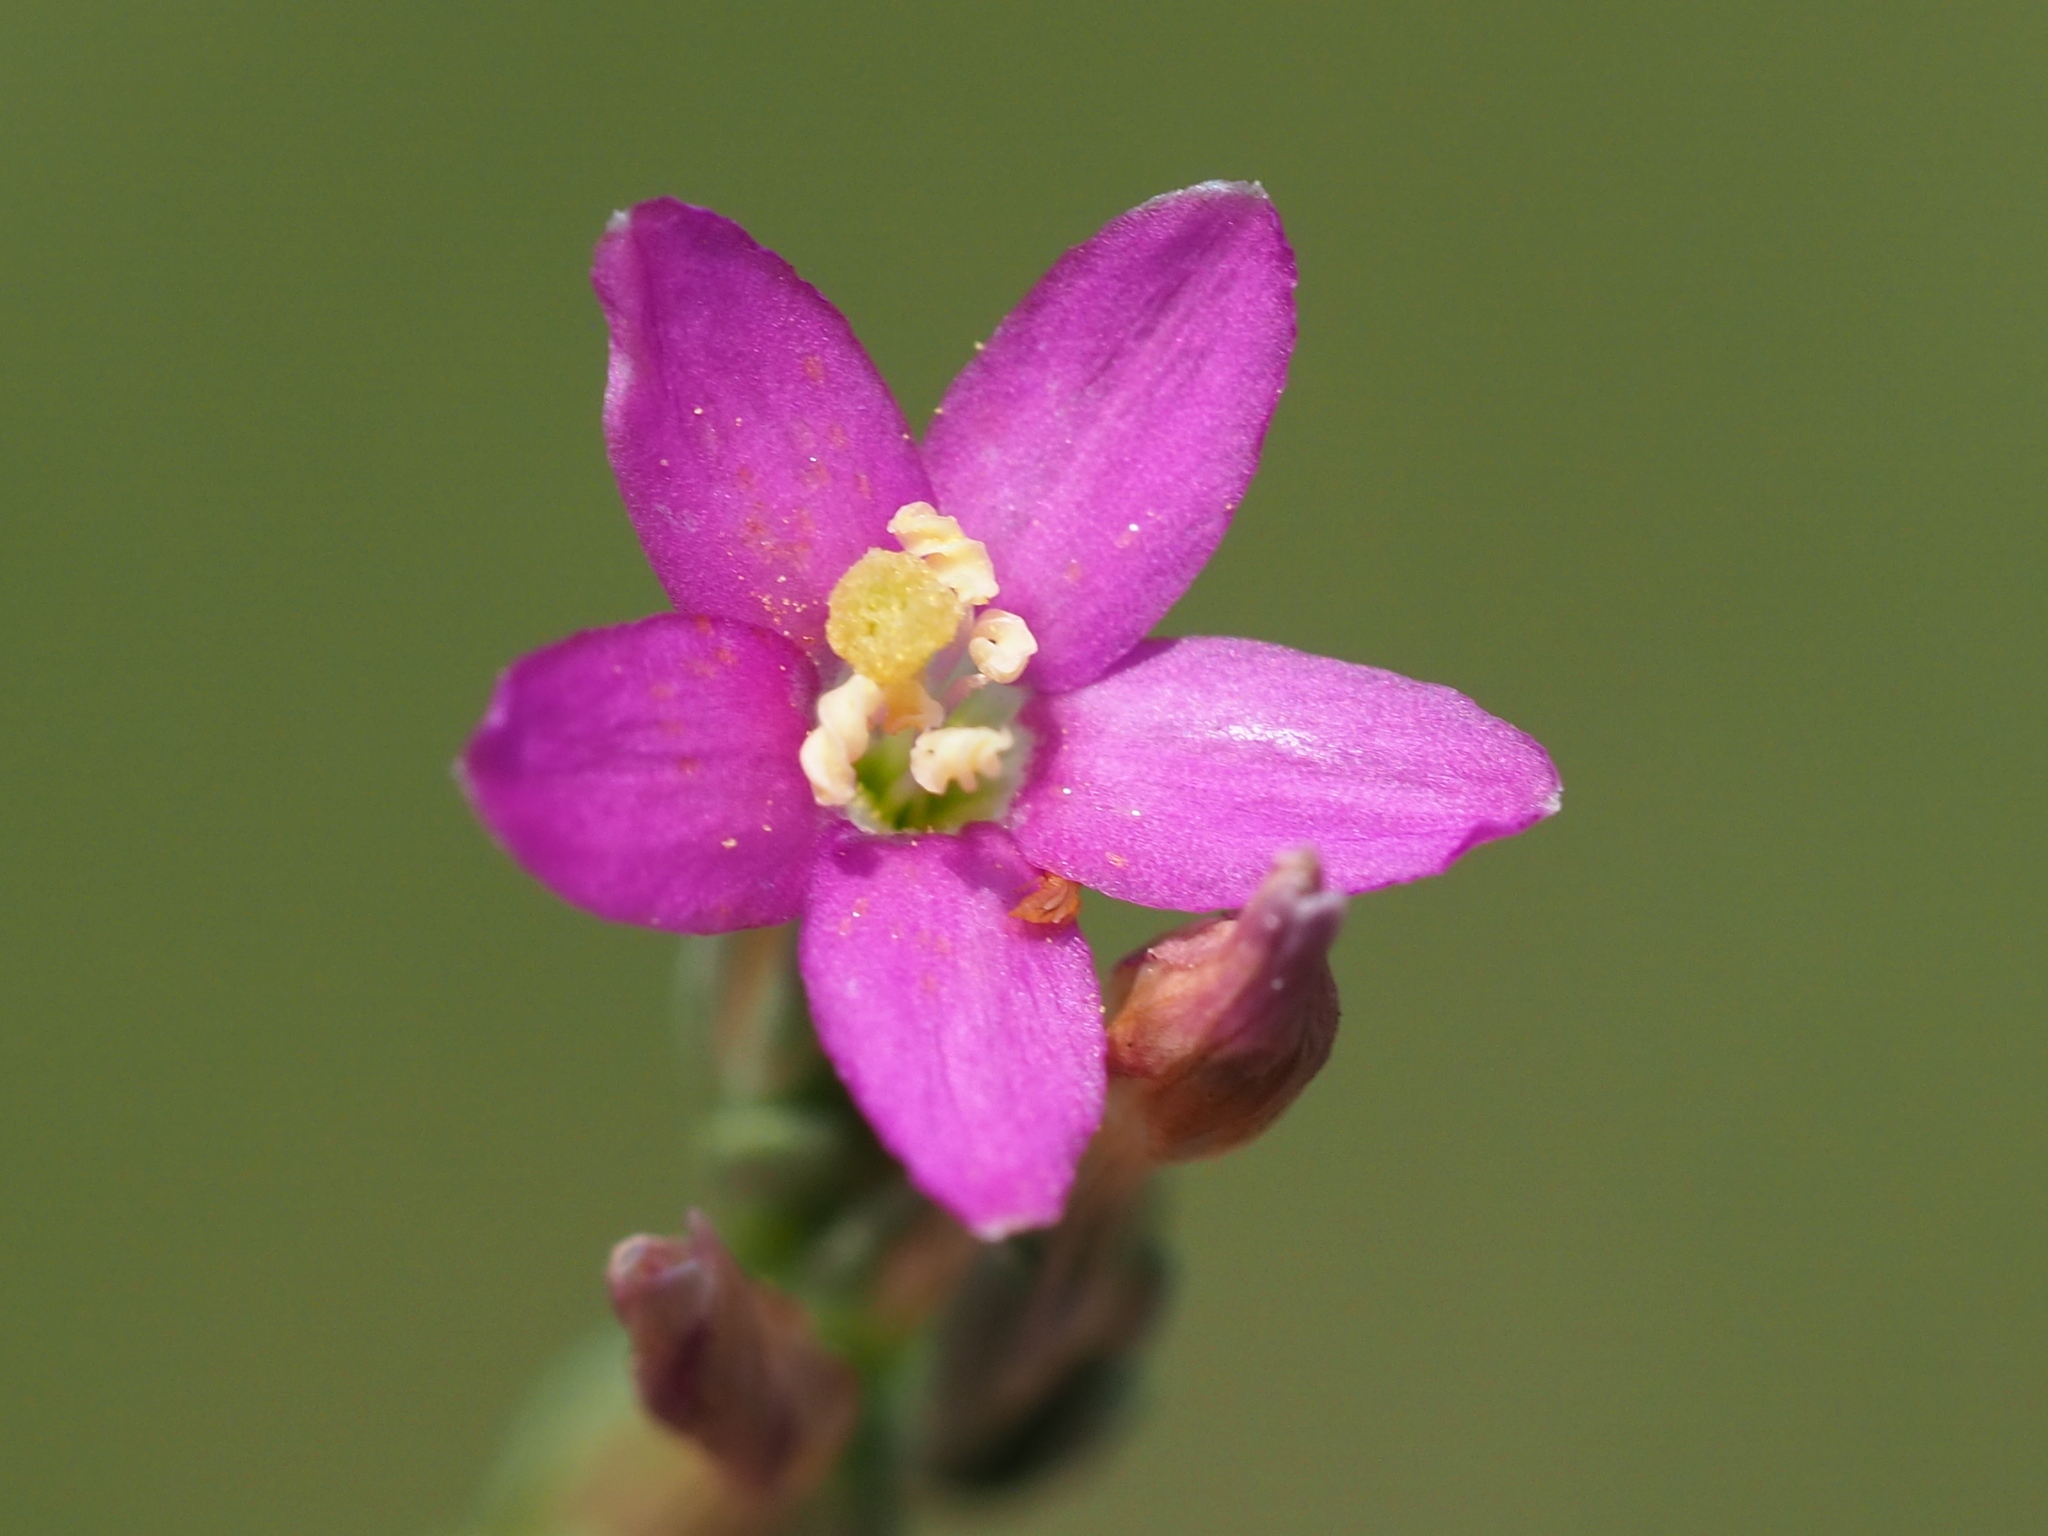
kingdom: Plantae
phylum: Tracheophyta
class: Magnoliopsida
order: Gentianales
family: Gentianaceae
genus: Schenkia
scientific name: Schenkia japonica
